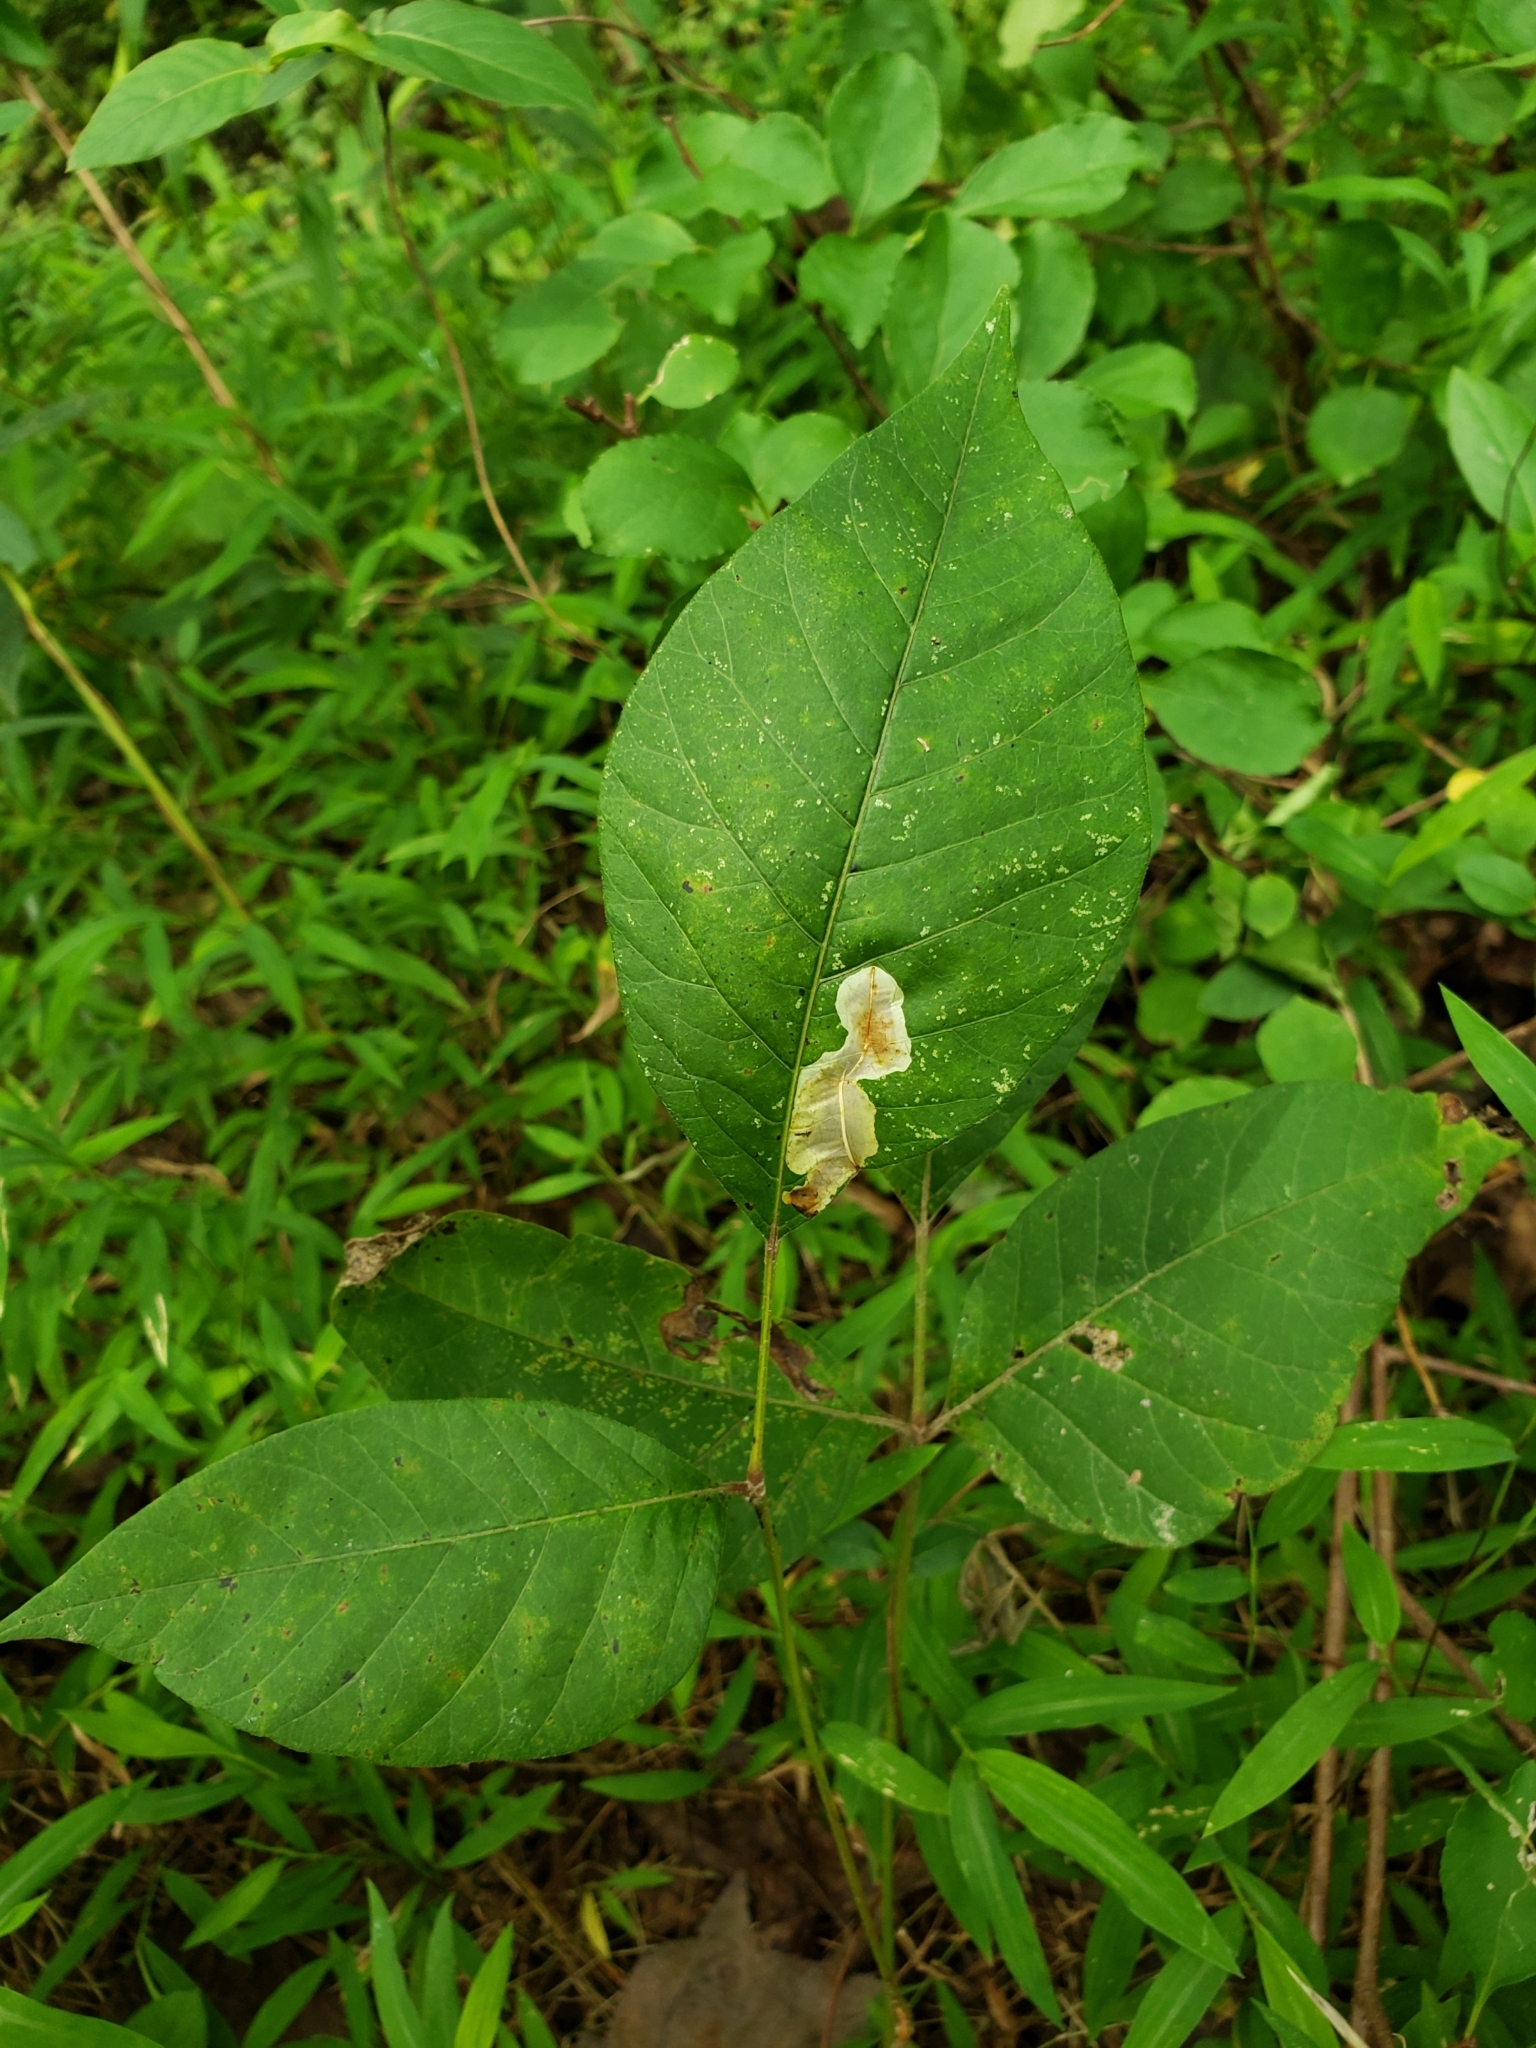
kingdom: Animalia
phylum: Arthropoda
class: Insecta
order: Lepidoptera
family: Gracillariidae
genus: Cameraria
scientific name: Cameraria guttifinitella
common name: Poison ivy leaf-miner moth
